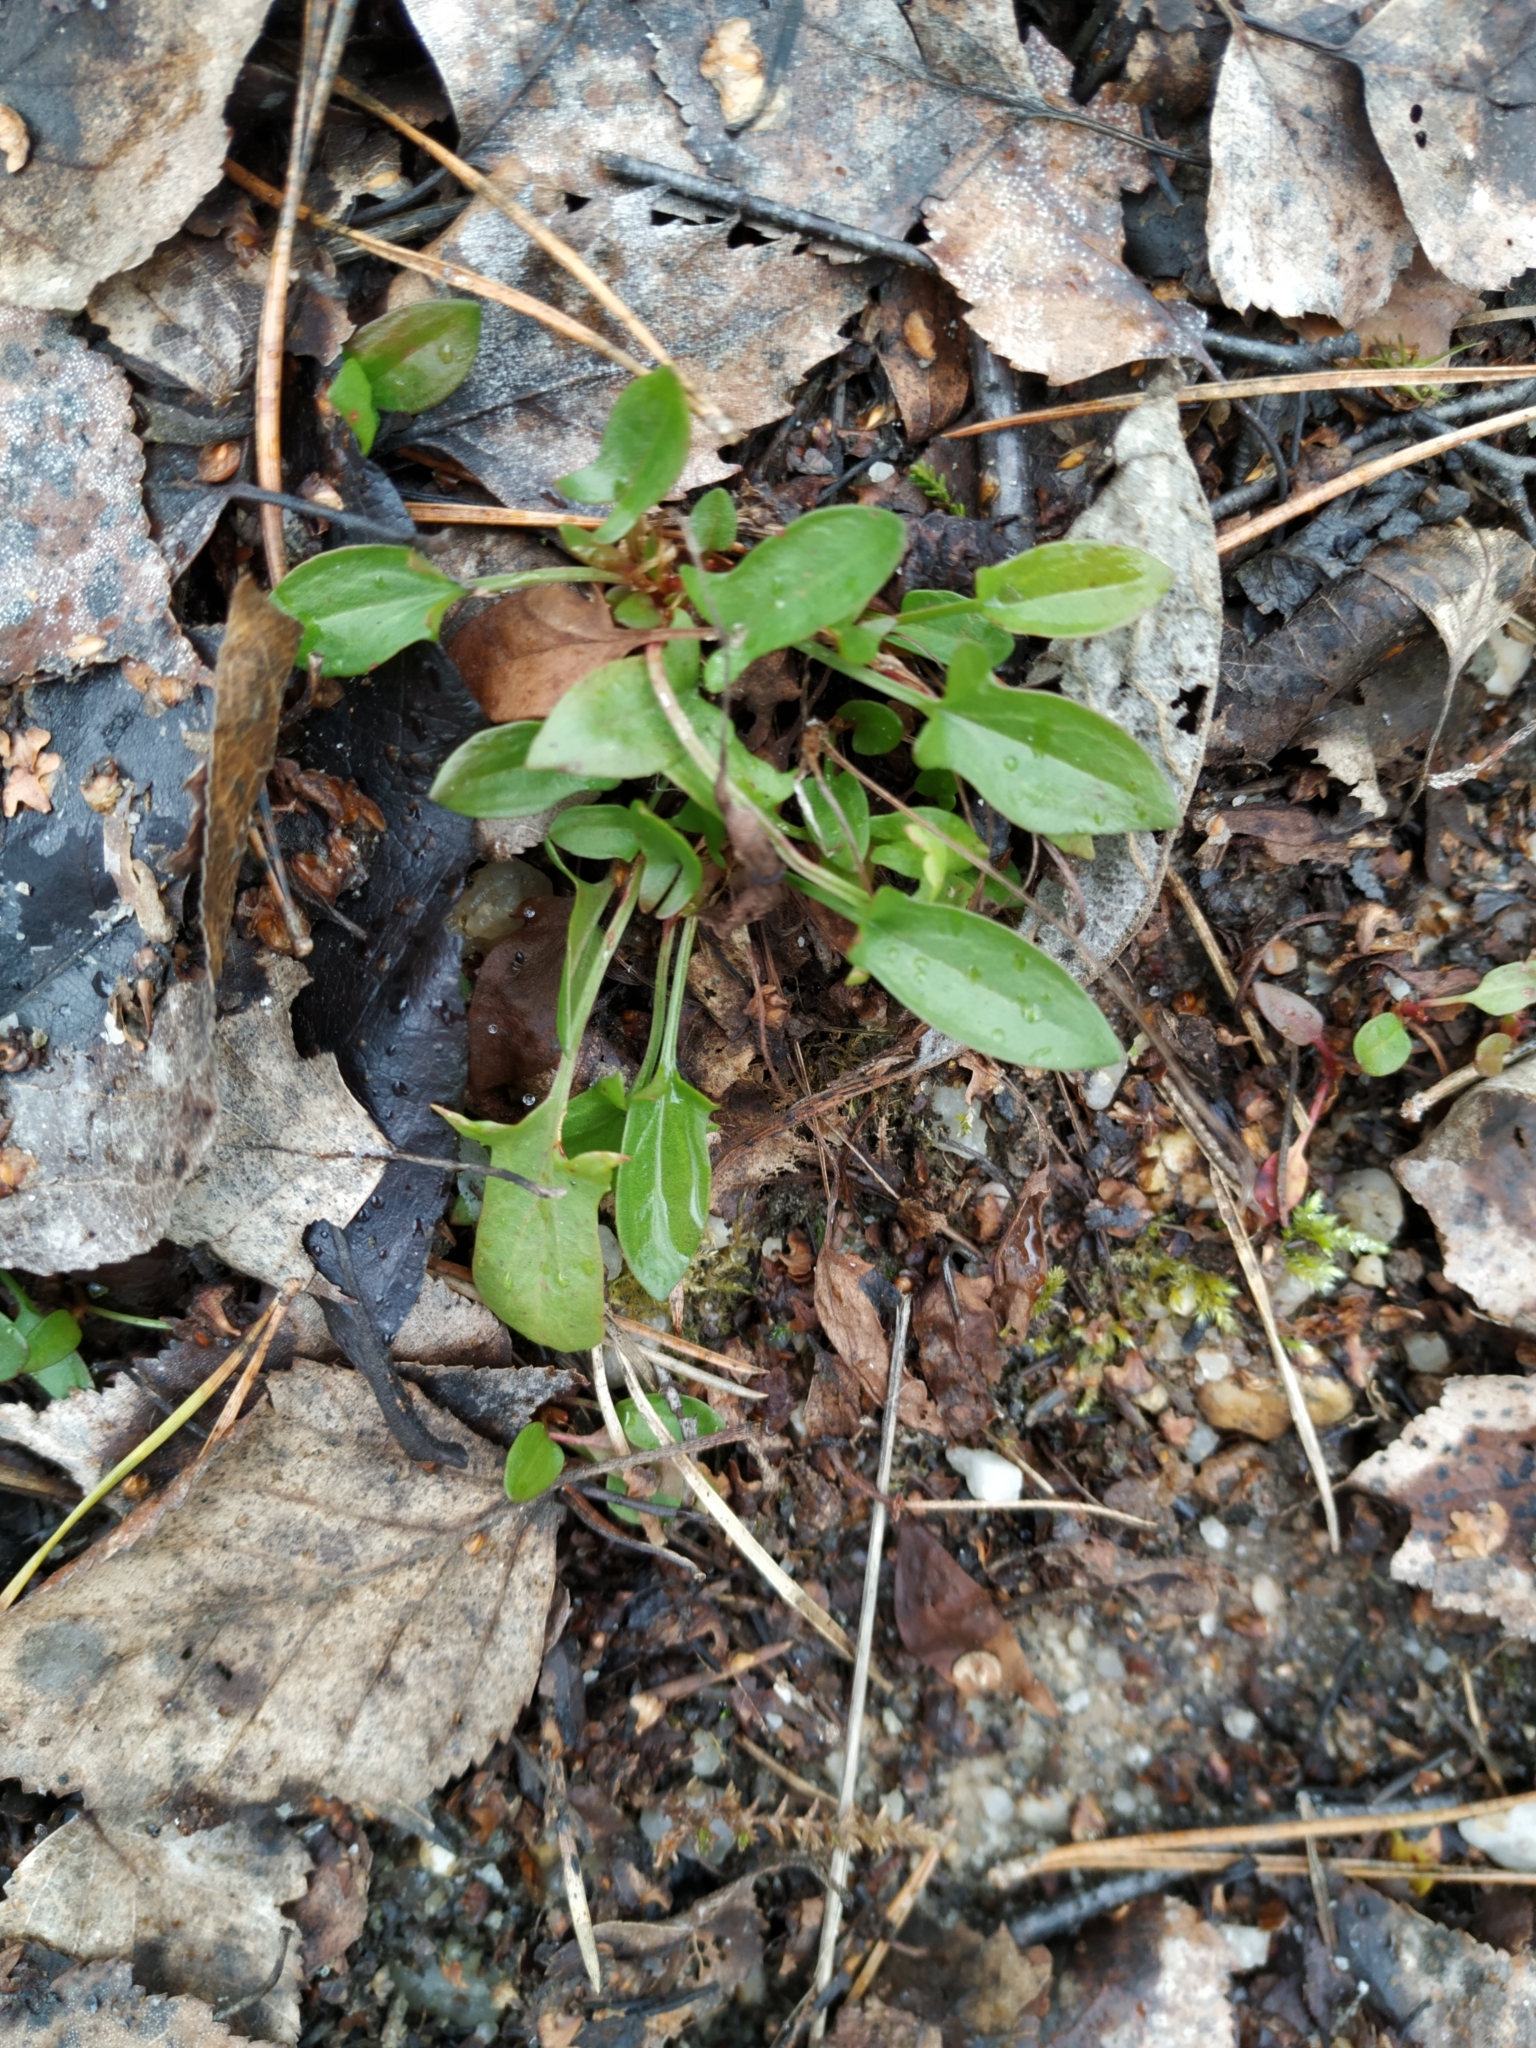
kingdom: Plantae
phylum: Tracheophyta
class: Magnoliopsida
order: Caryophyllales
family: Polygonaceae
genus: Rumex
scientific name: Rumex acetosella
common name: Common sheep sorrel
